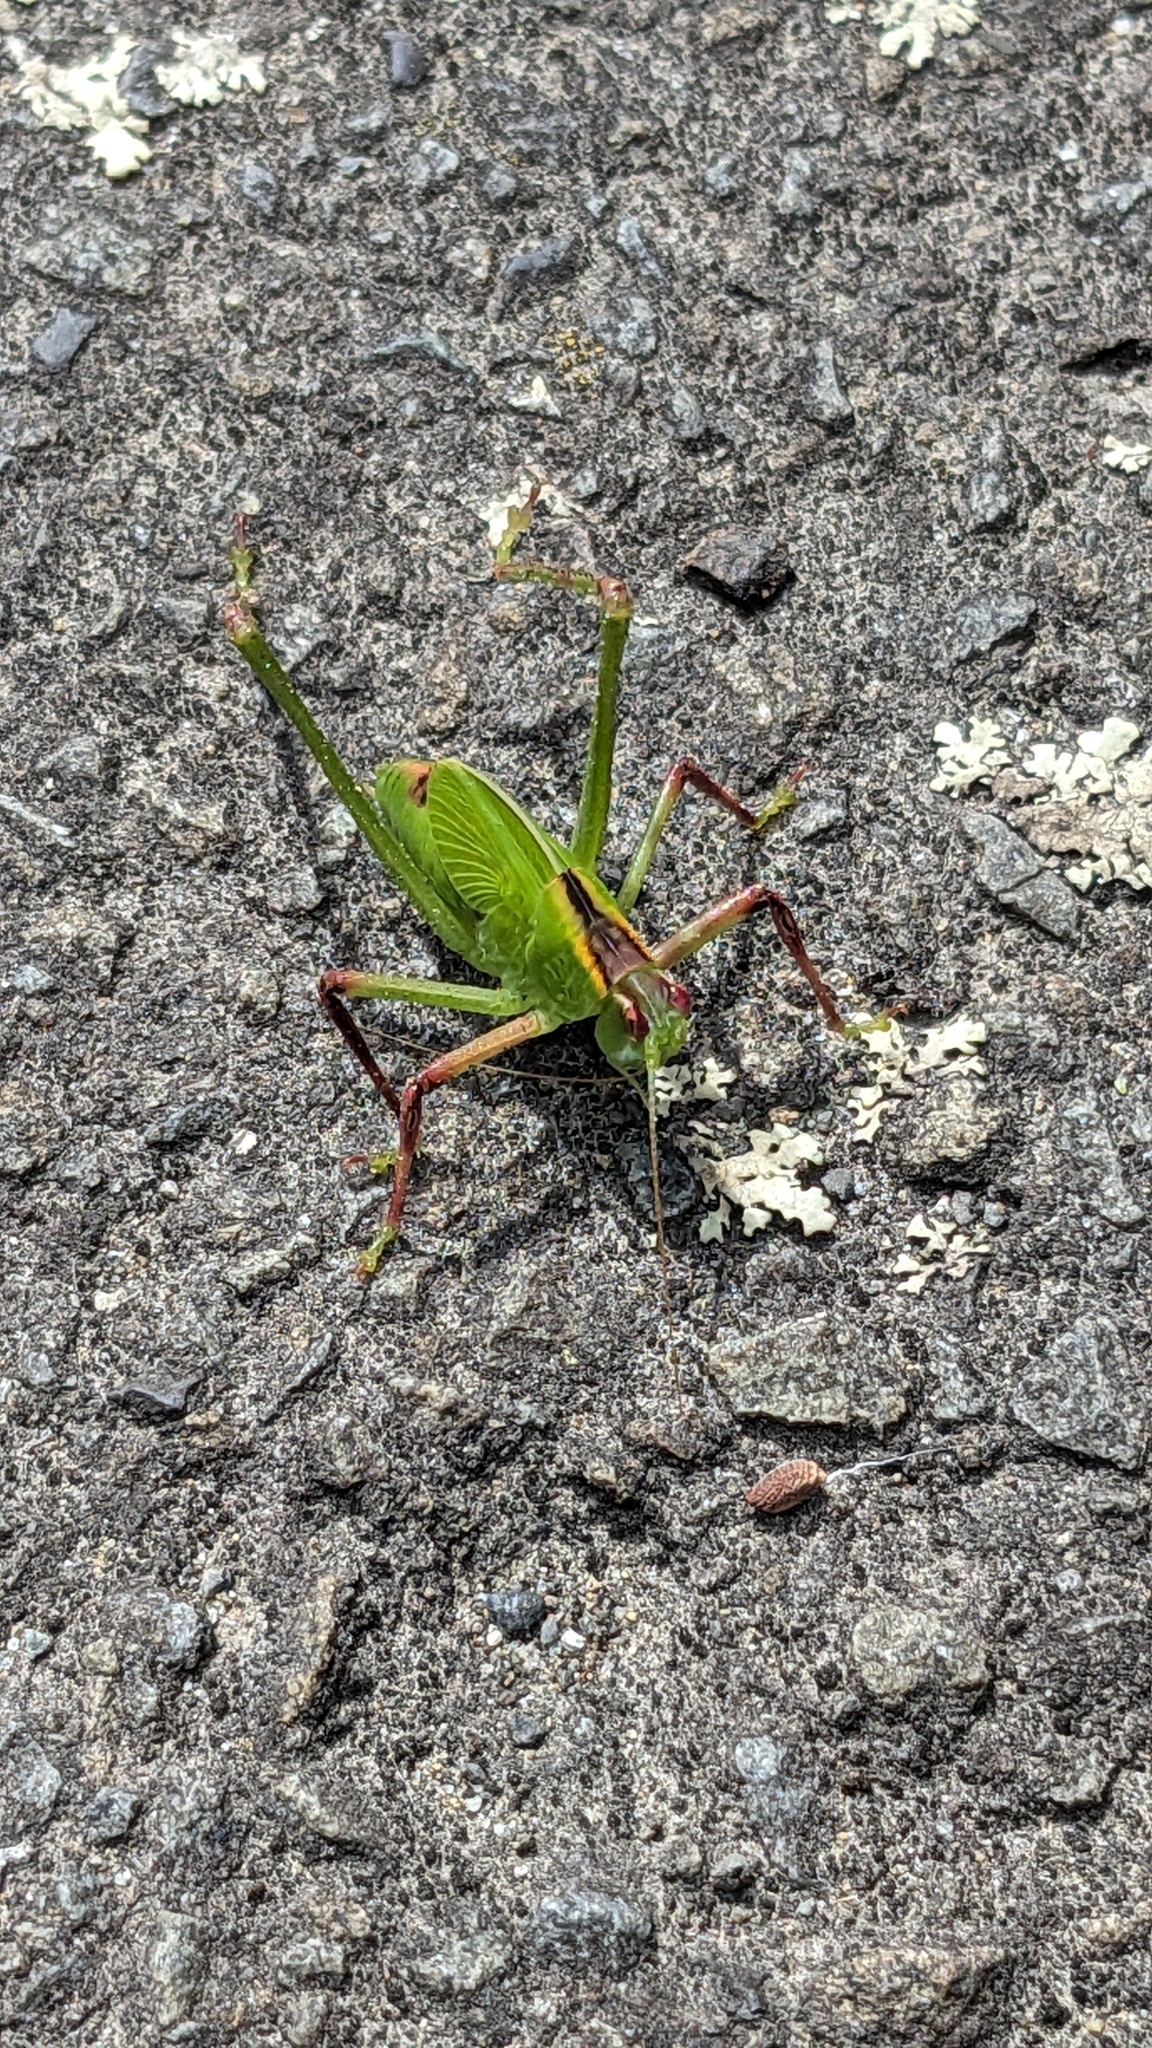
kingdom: Animalia
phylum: Arthropoda
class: Insecta
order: Orthoptera
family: Tettigoniidae
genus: Caedicia
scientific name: Caedicia simplex
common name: Common garden katydid
